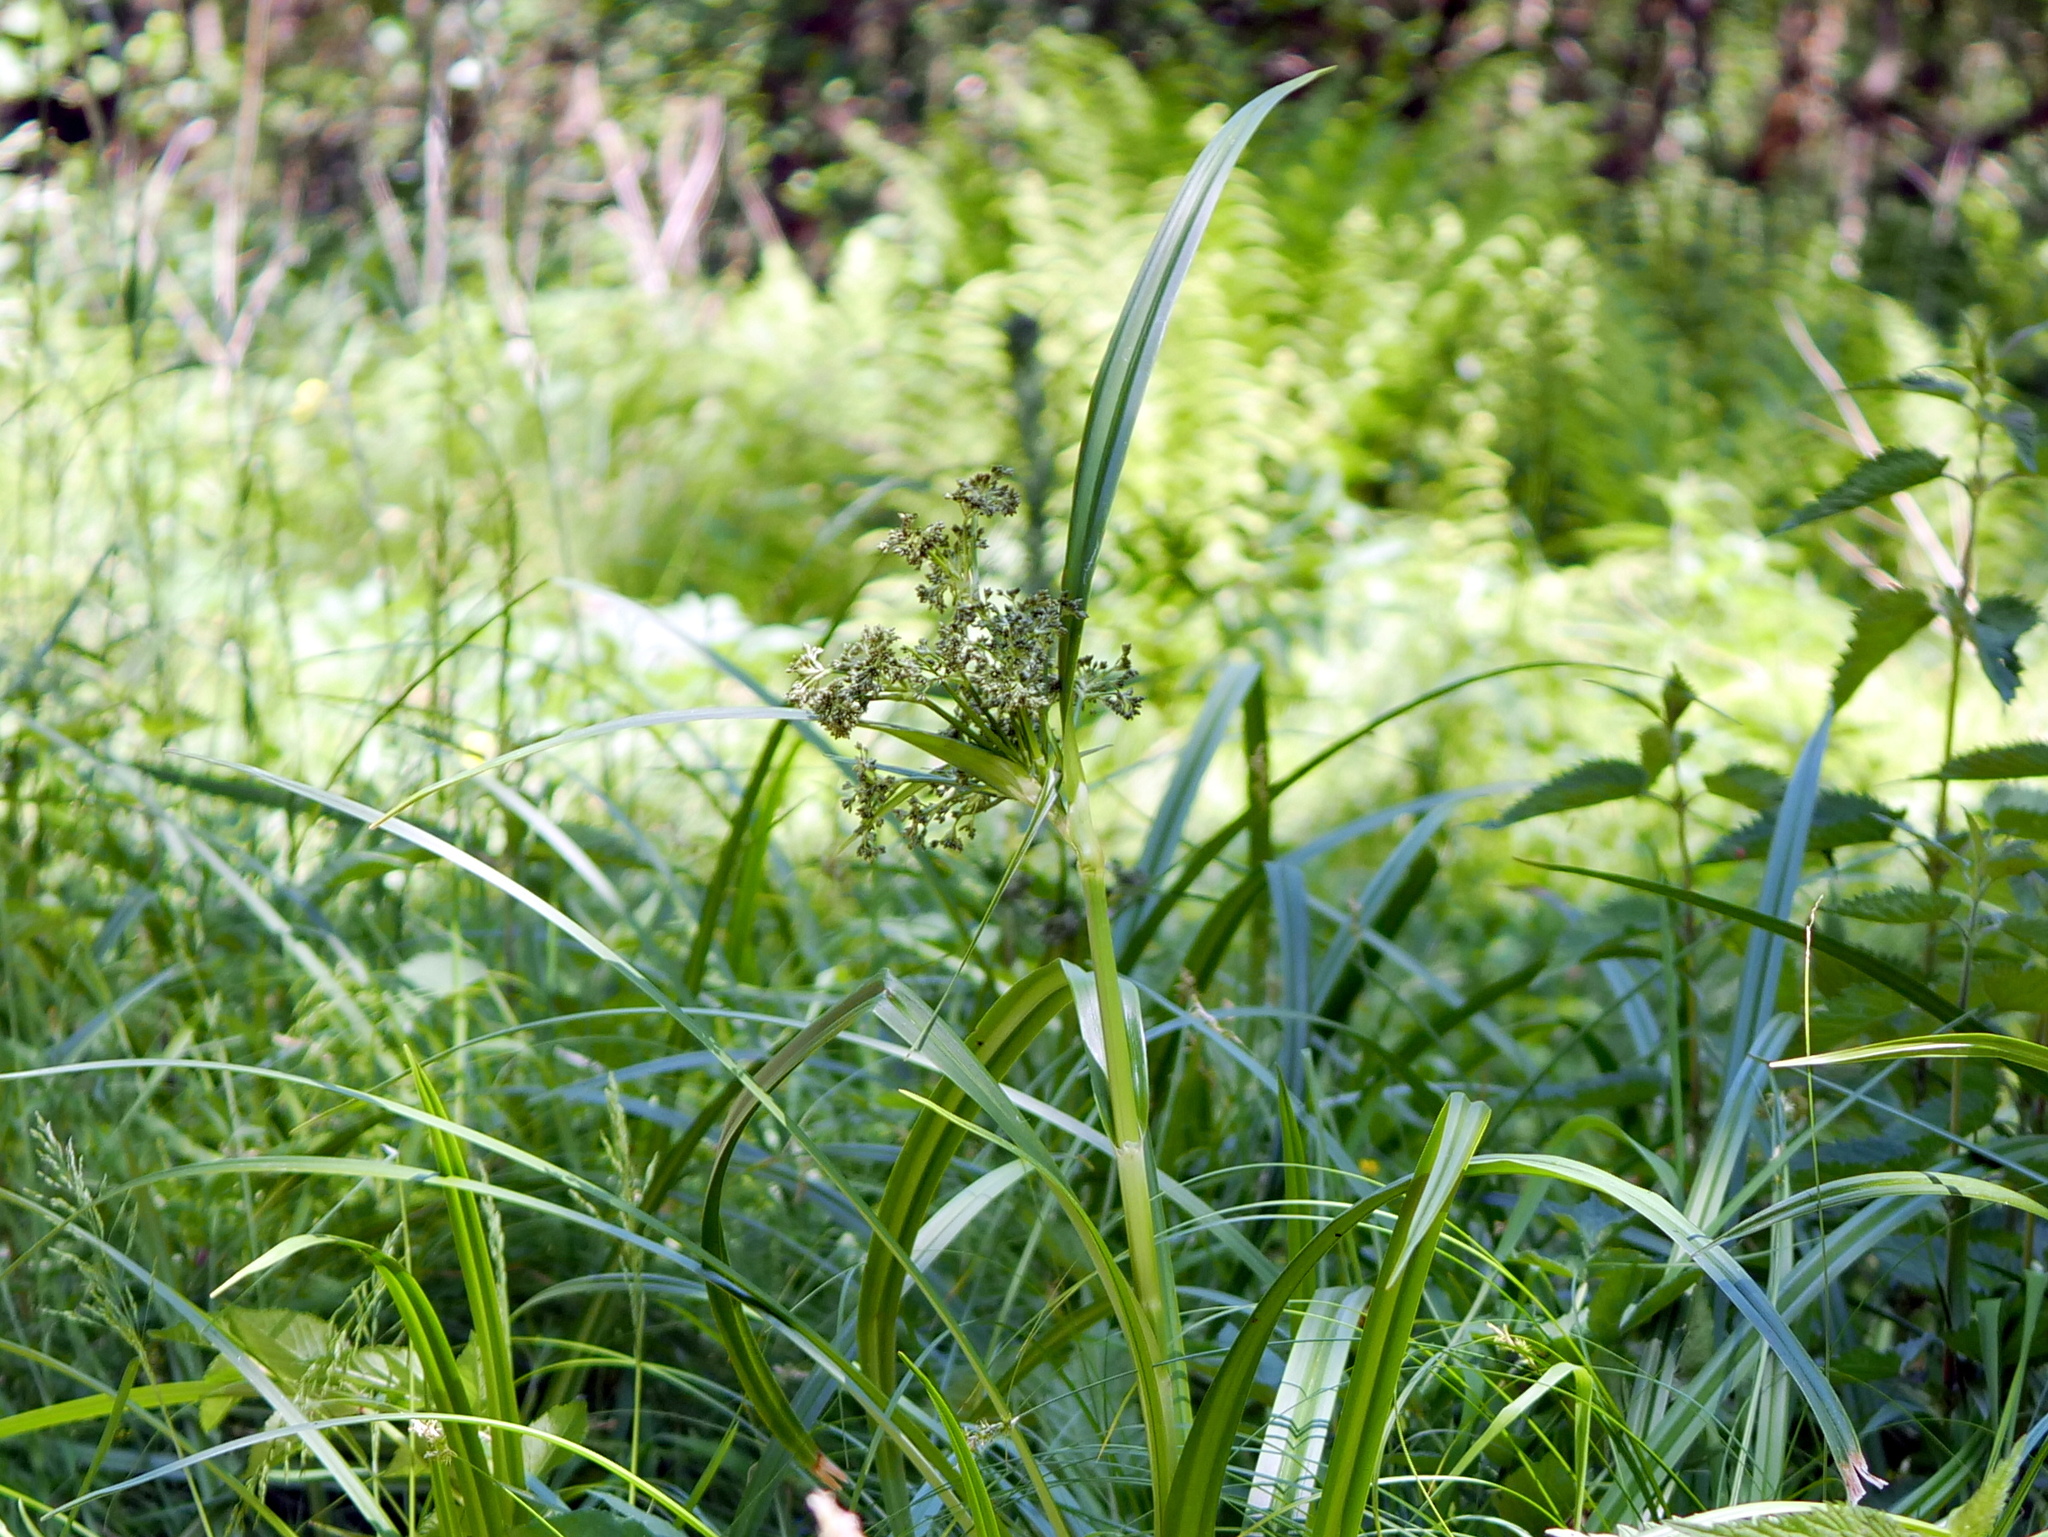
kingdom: Plantae
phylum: Tracheophyta
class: Liliopsida
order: Poales
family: Cyperaceae
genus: Scirpus
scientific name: Scirpus sylvaticus
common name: Wood club-rush
